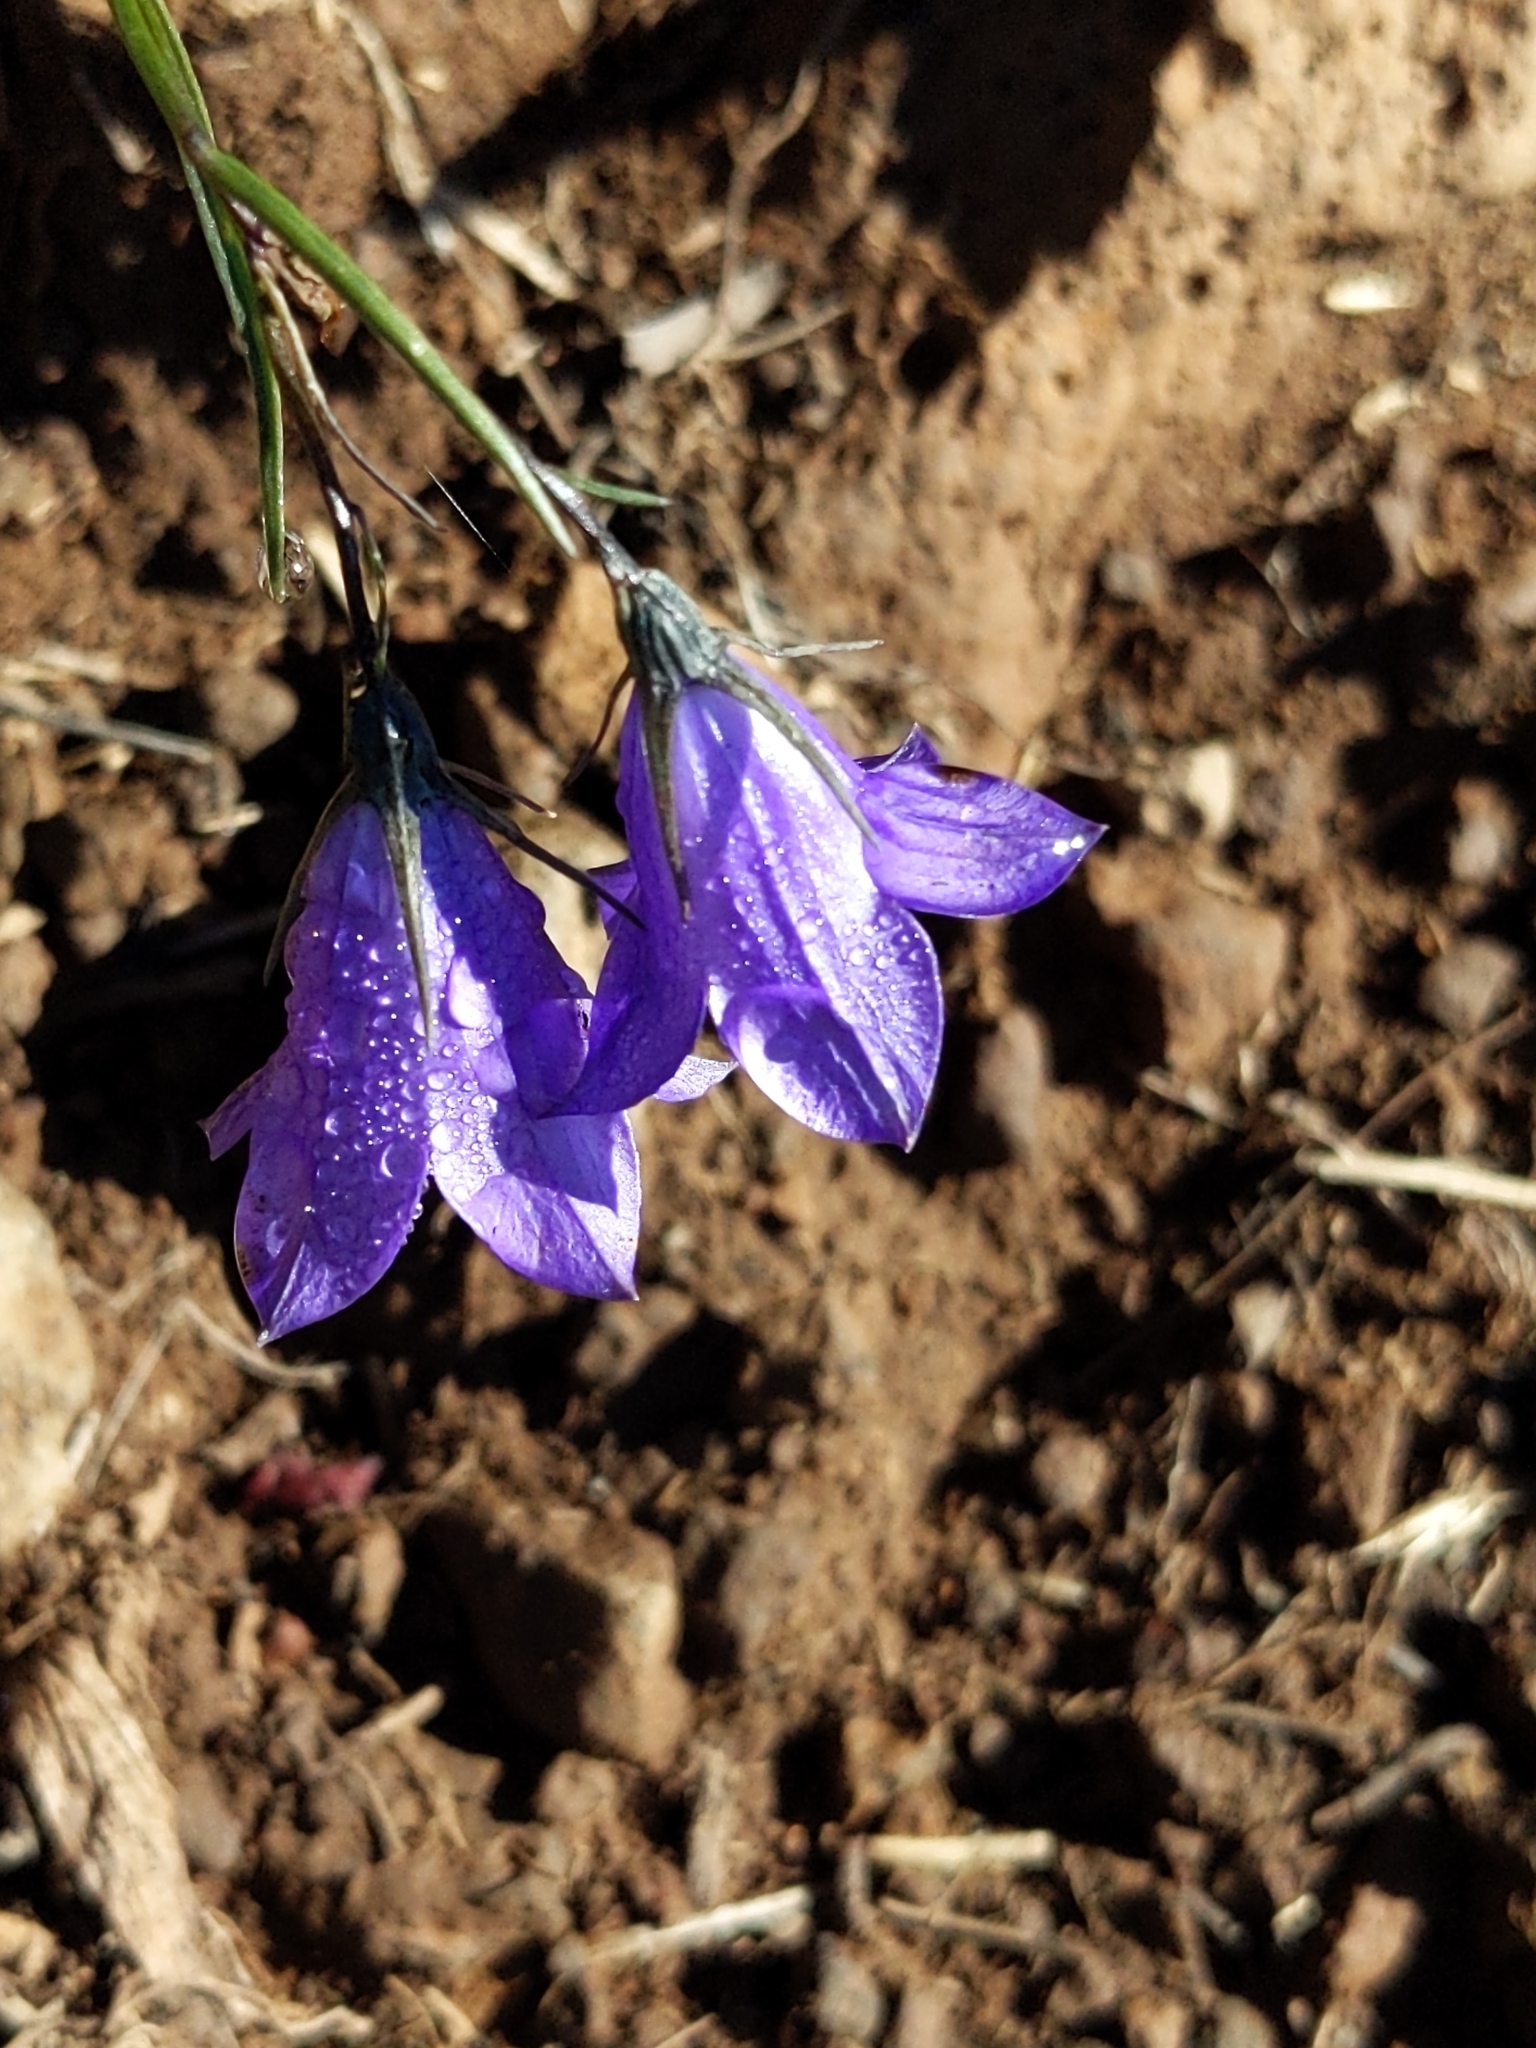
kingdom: Plantae
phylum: Tracheophyta
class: Magnoliopsida
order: Asterales
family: Campanulaceae
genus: Campanula
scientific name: Campanula petiolata
